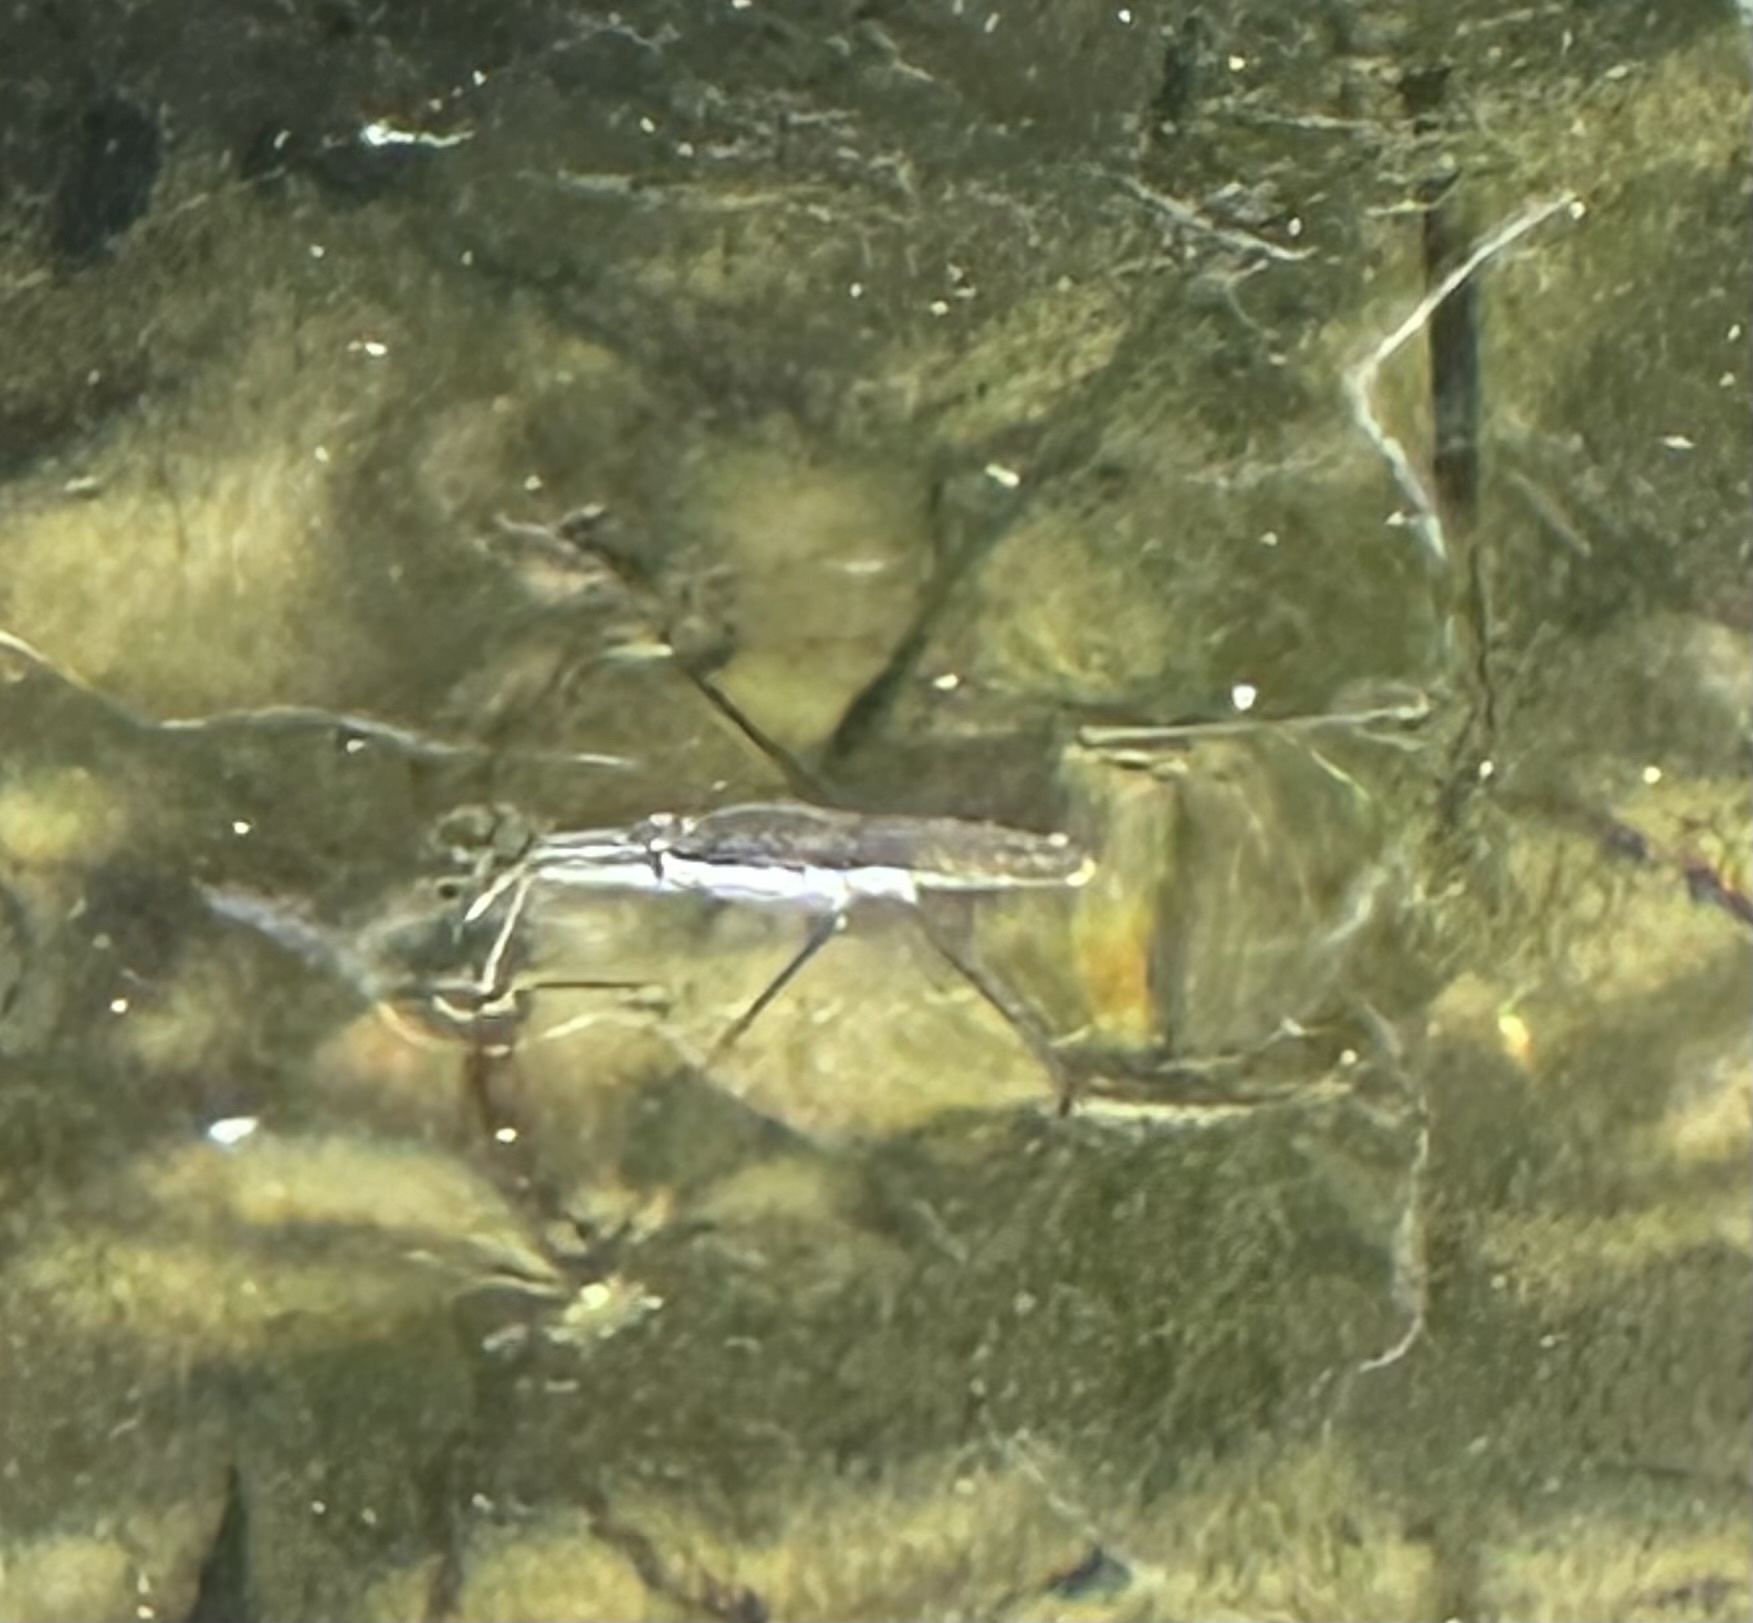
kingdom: Animalia
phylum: Arthropoda
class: Insecta
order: Hemiptera
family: Gerridae
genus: Aquarius
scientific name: Aquarius remigis
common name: Common water strider
